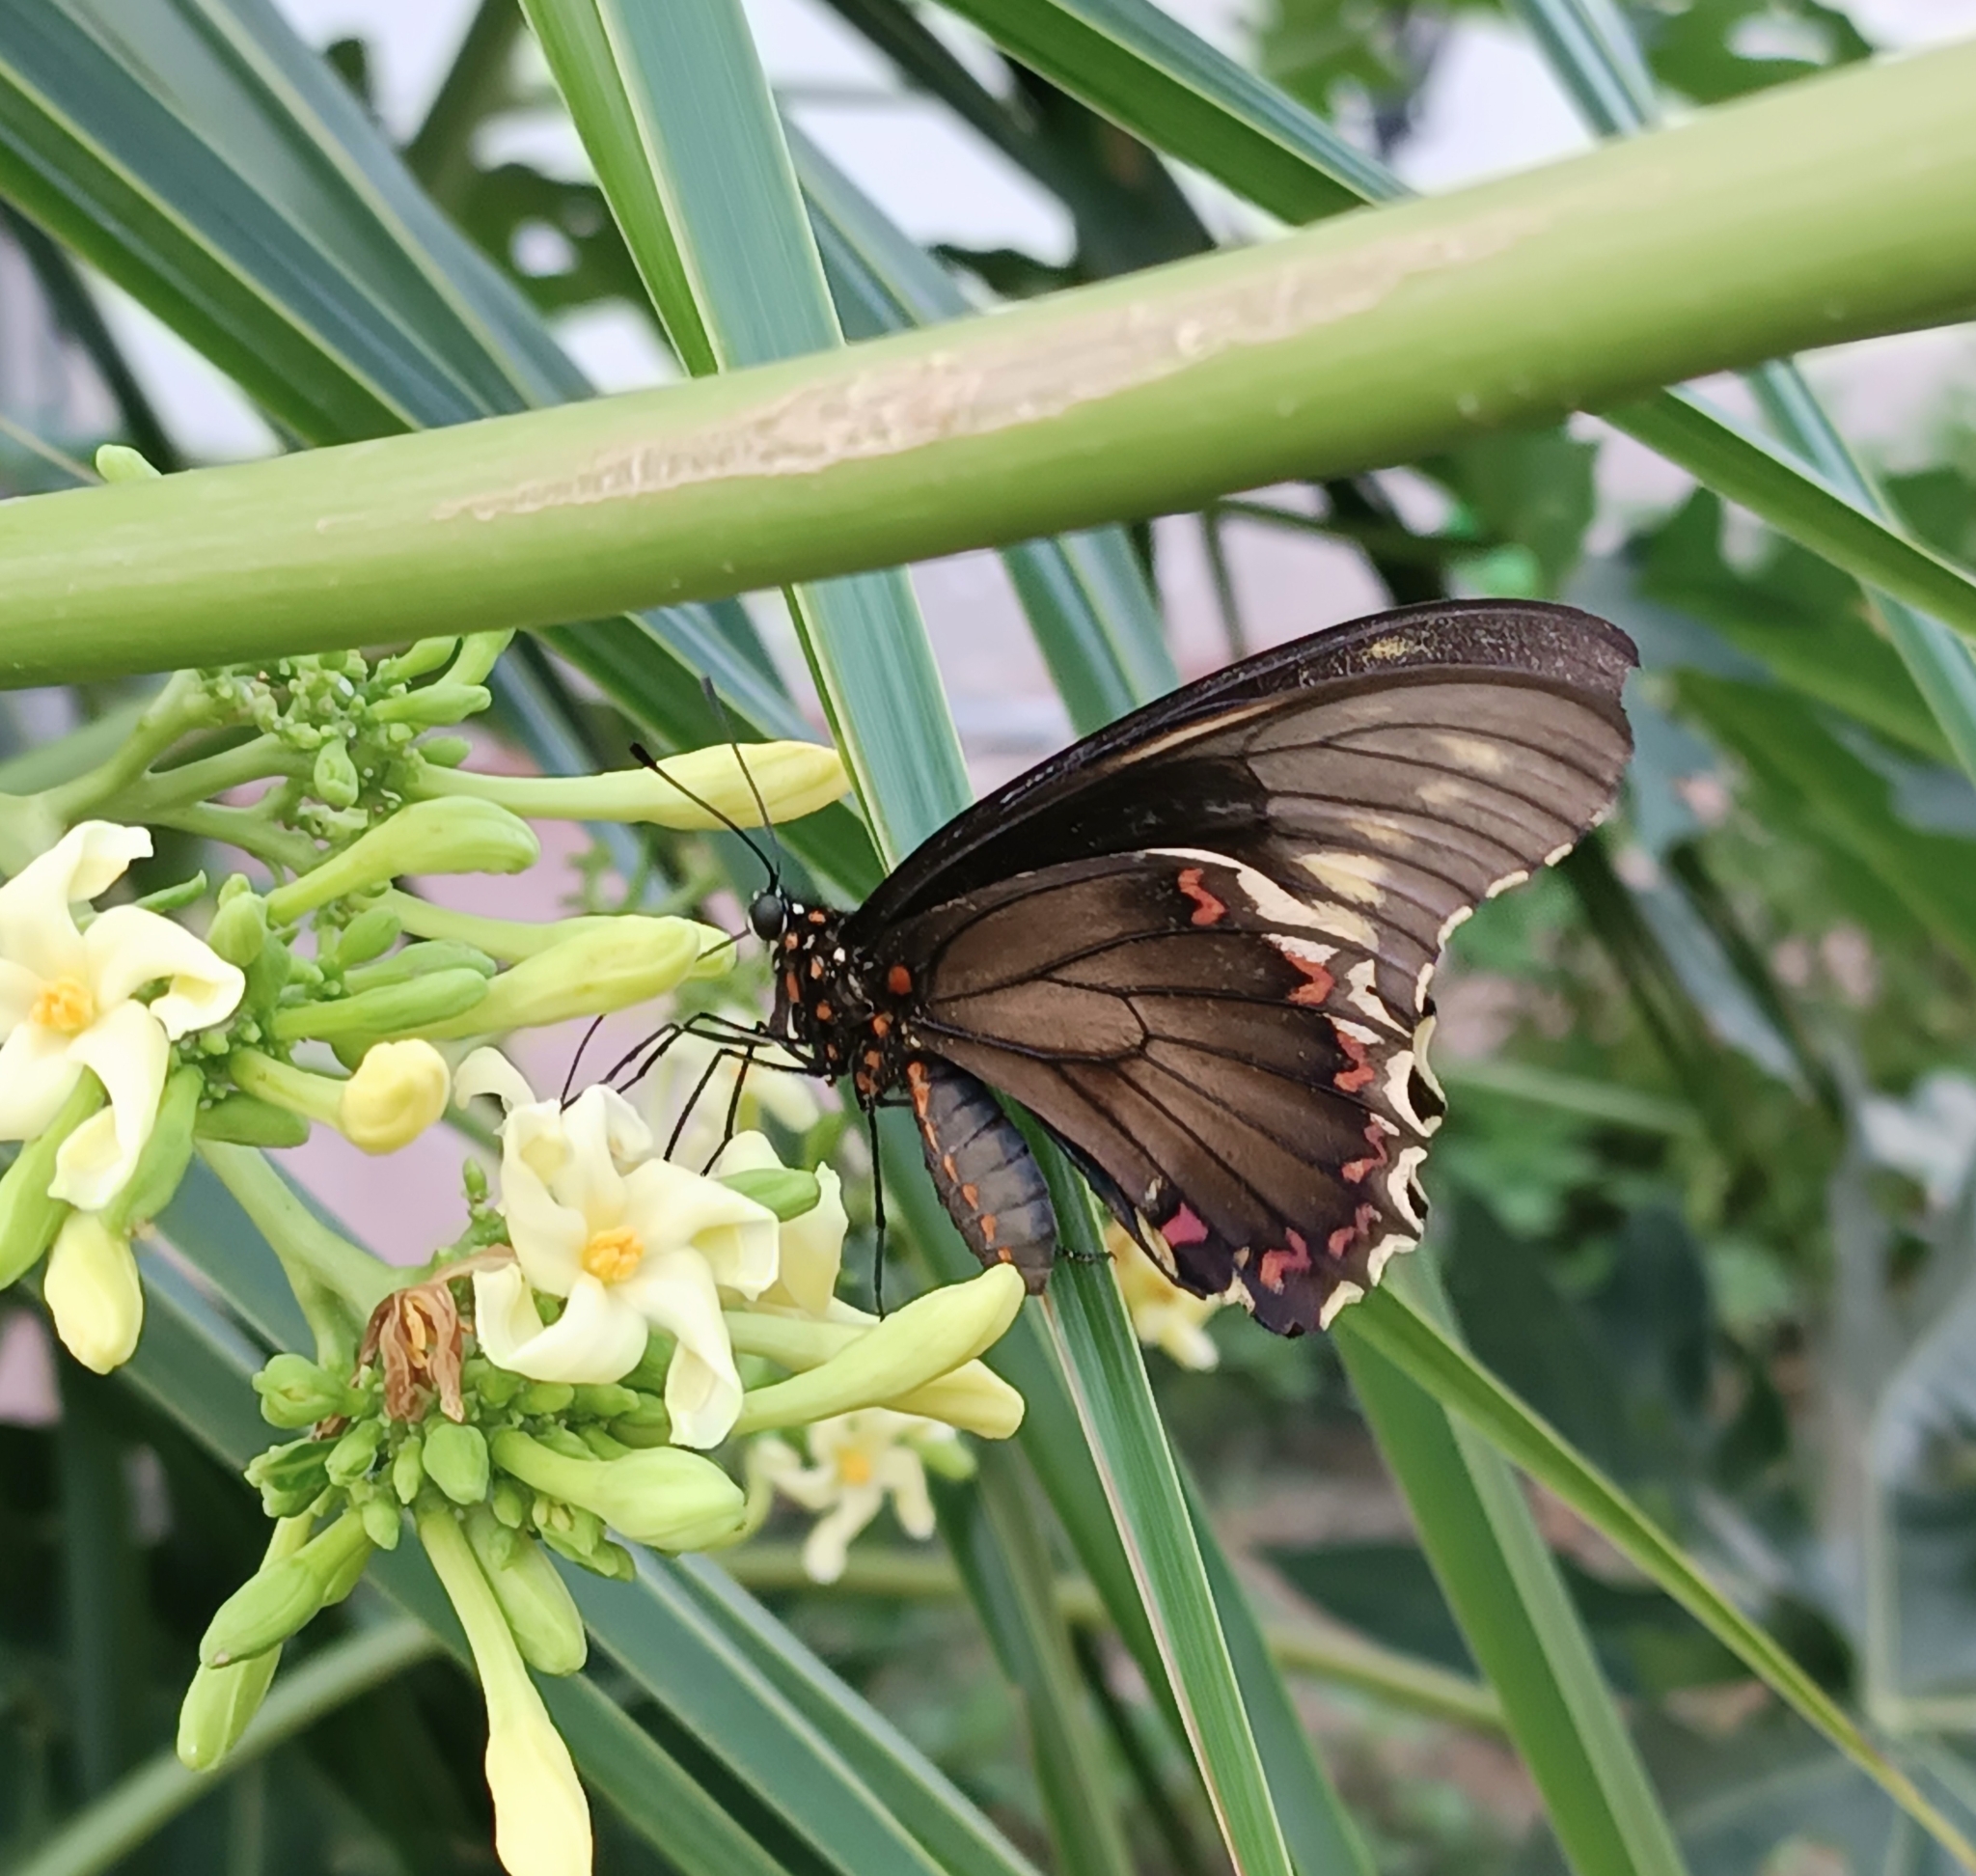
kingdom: Animalia
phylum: Arthropoda
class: Insecta
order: Lepidoptera
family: Papilionidae
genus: Battus
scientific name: Battus polydamas
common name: Polydamas swallowtail
